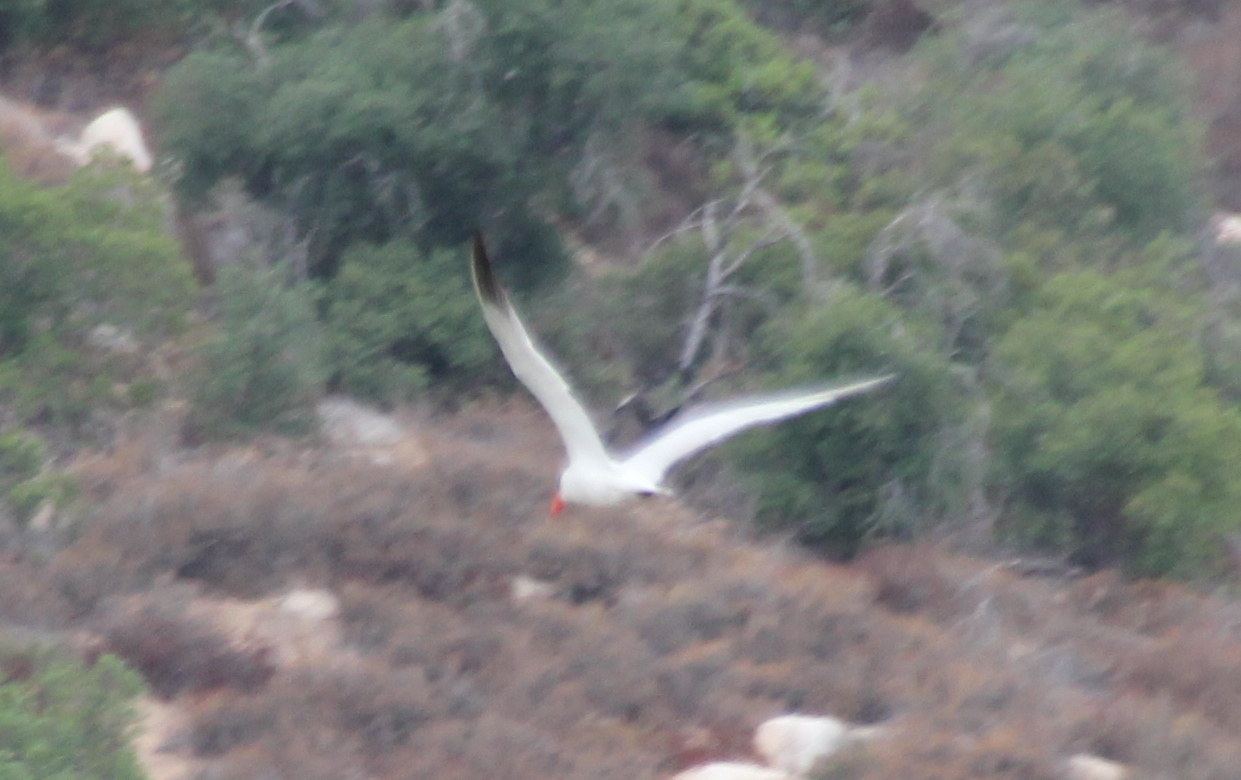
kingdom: Animalia
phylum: Chordata
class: Aves
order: Charadriiformes
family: Laridae
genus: Hydroprogne
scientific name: Hydroprogne caspia
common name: Caspian tern
